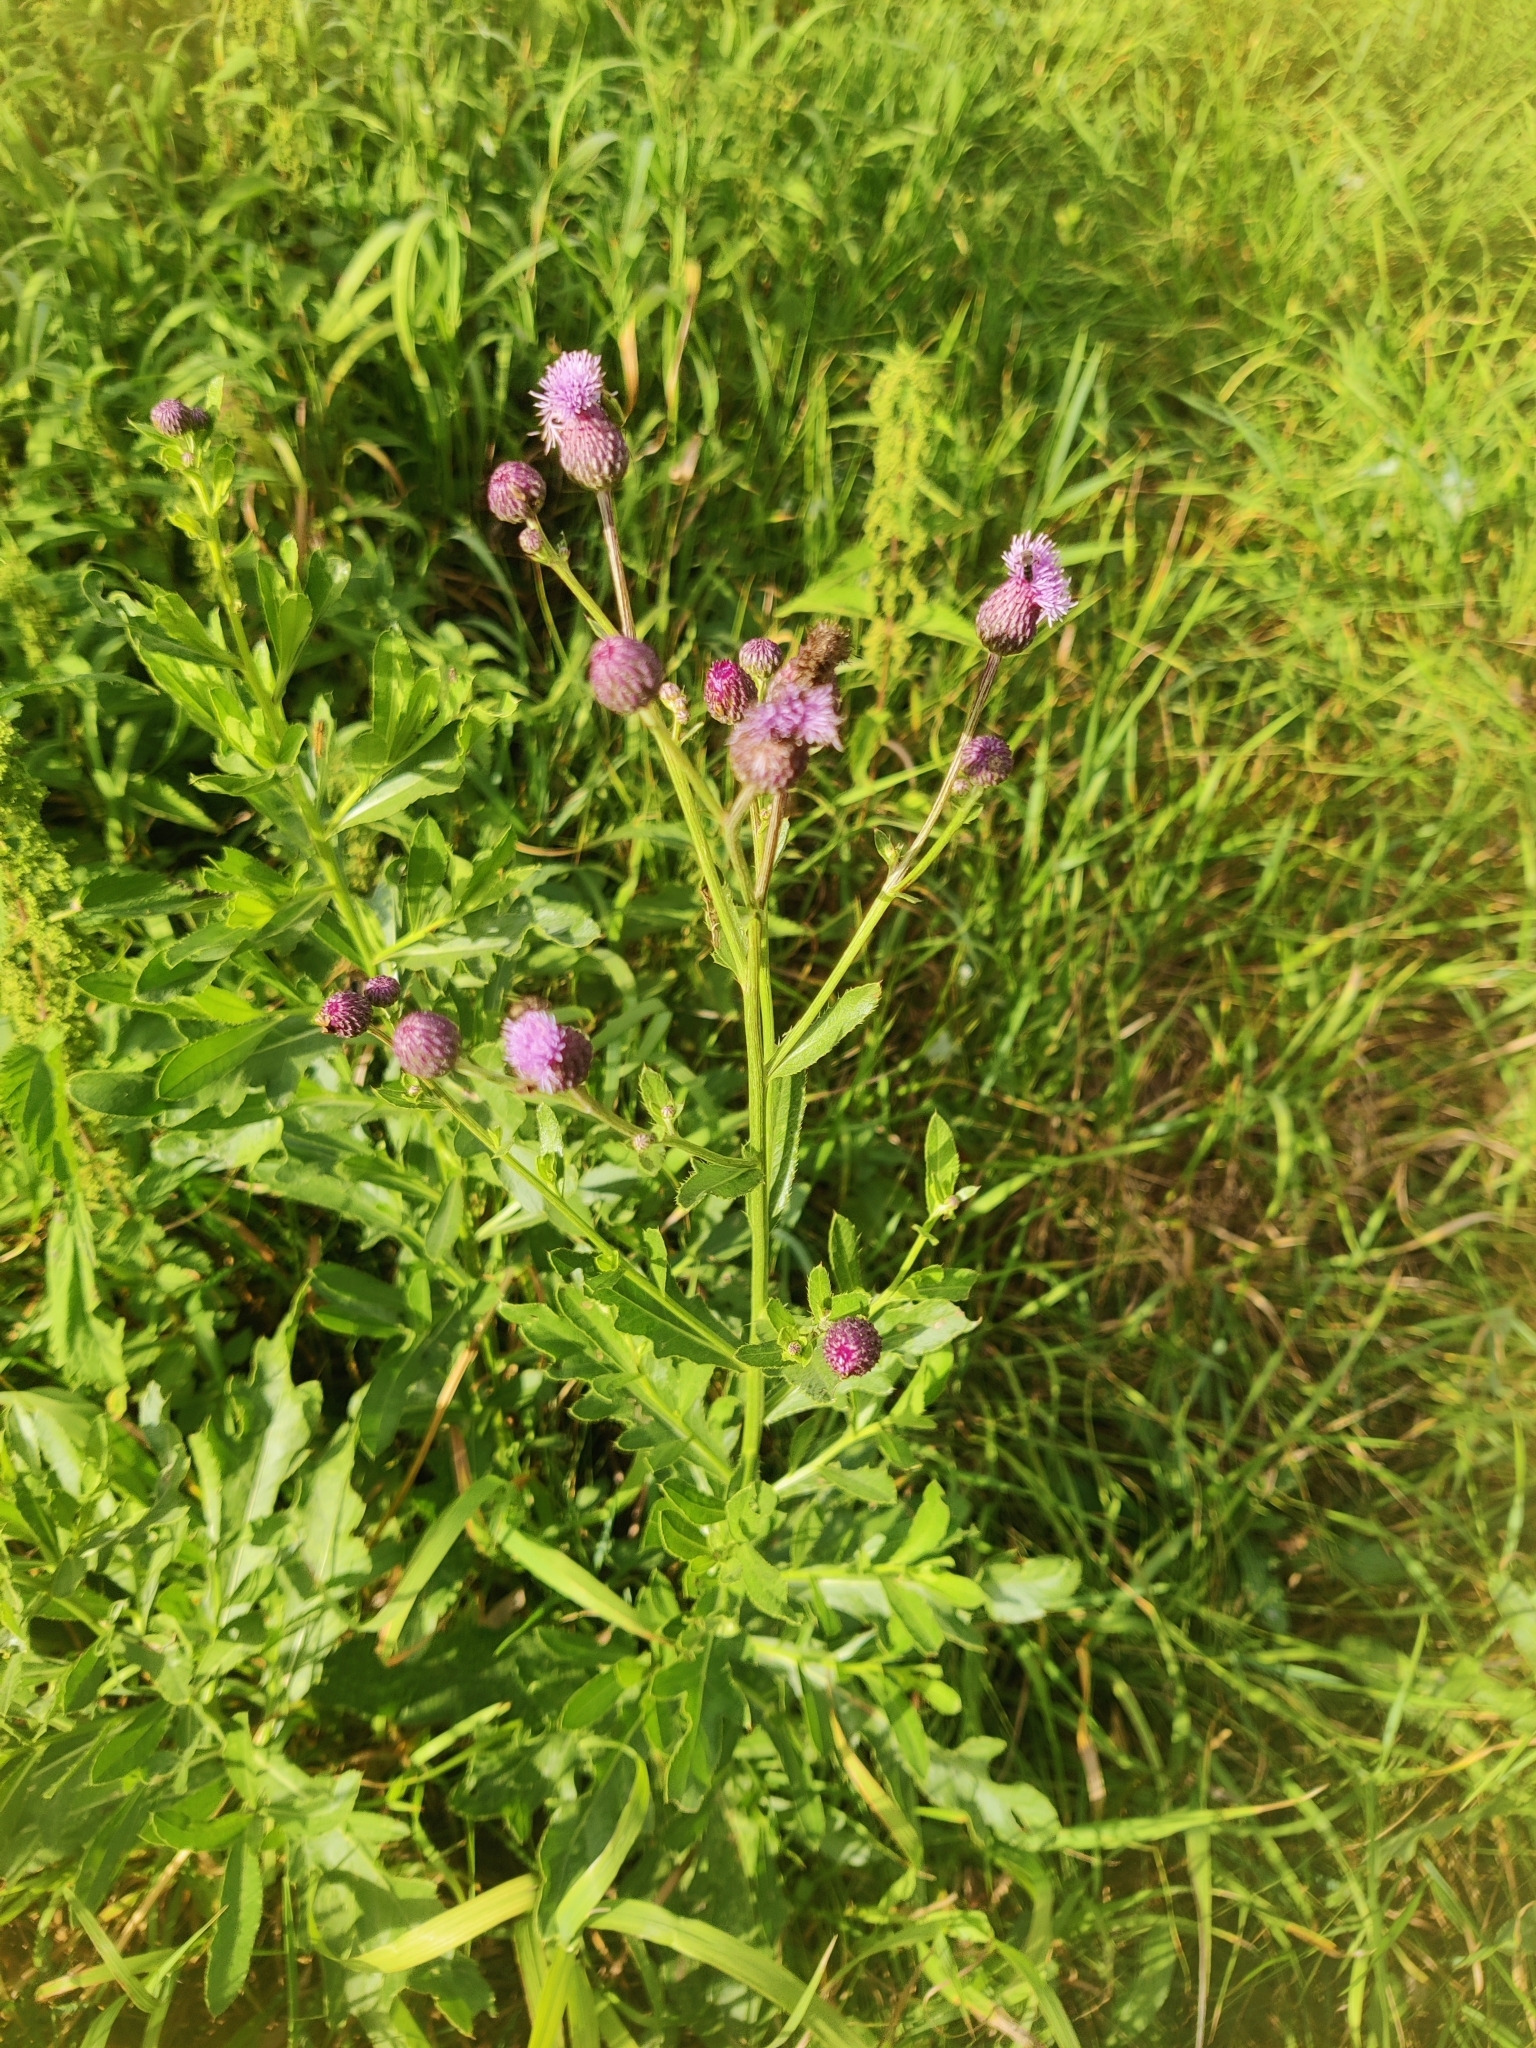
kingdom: Plantae
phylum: Tracheophyta
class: Magnoliopsida
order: Asterales
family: Asteraceae
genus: Cirsium
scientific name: Cirsium arvense
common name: Creeping thistle
